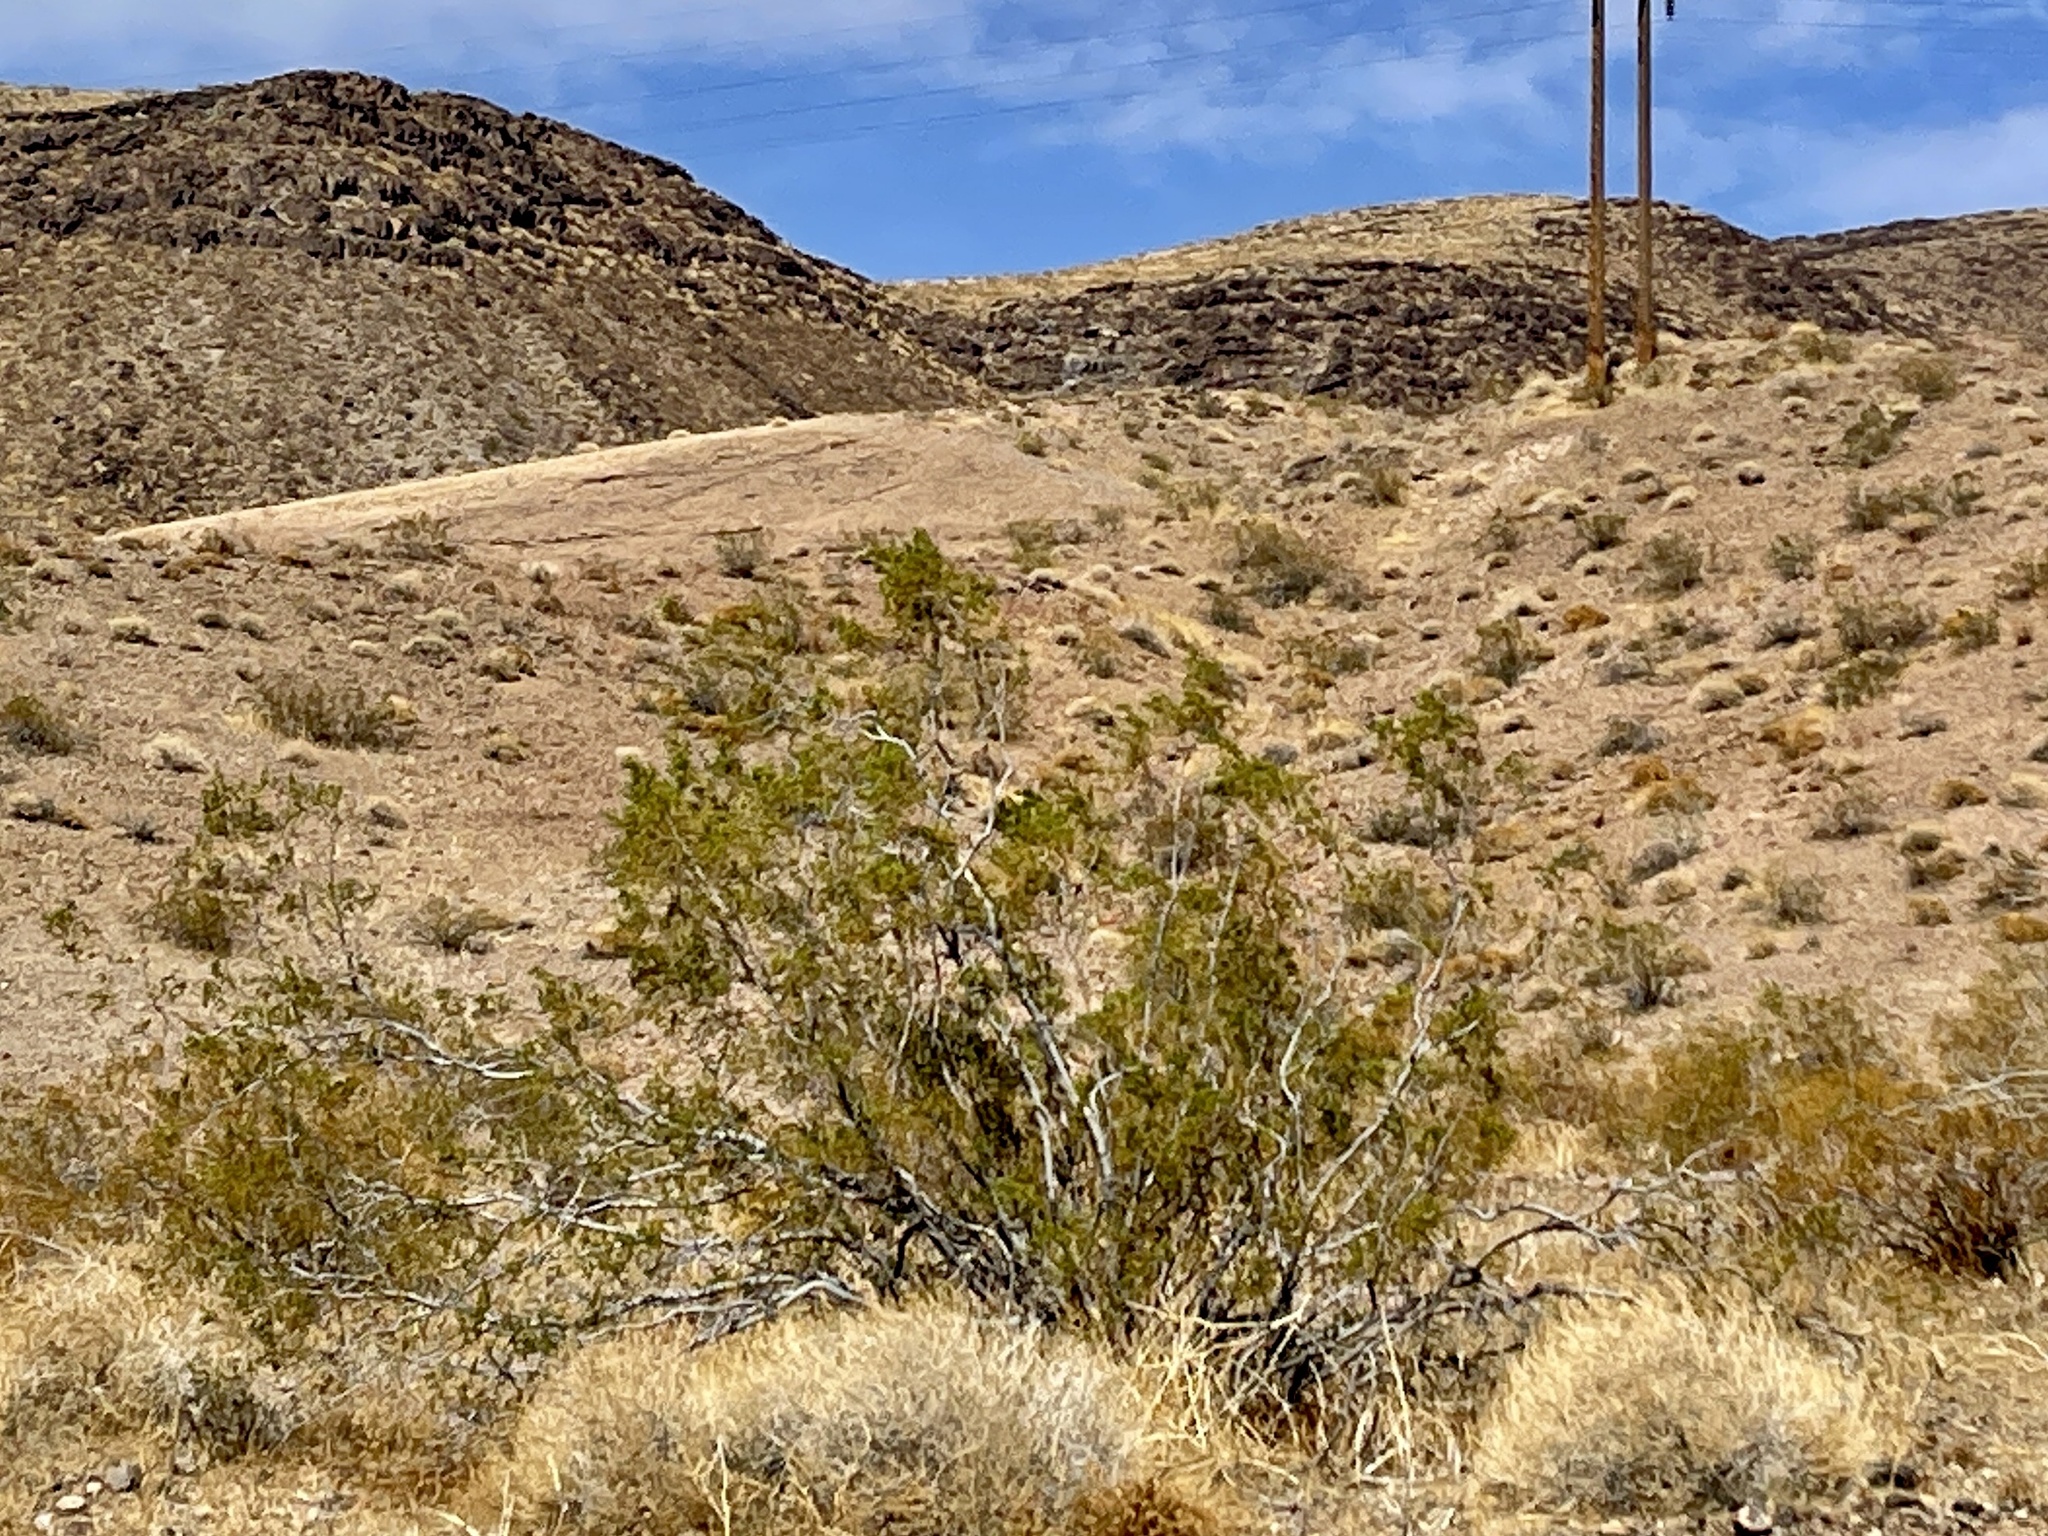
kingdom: Plantae
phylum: Tracheophyta
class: Magnoliopsida
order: Zygophyllales
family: Zygophyllaceae
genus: Larrea
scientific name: Larrea tridentata
